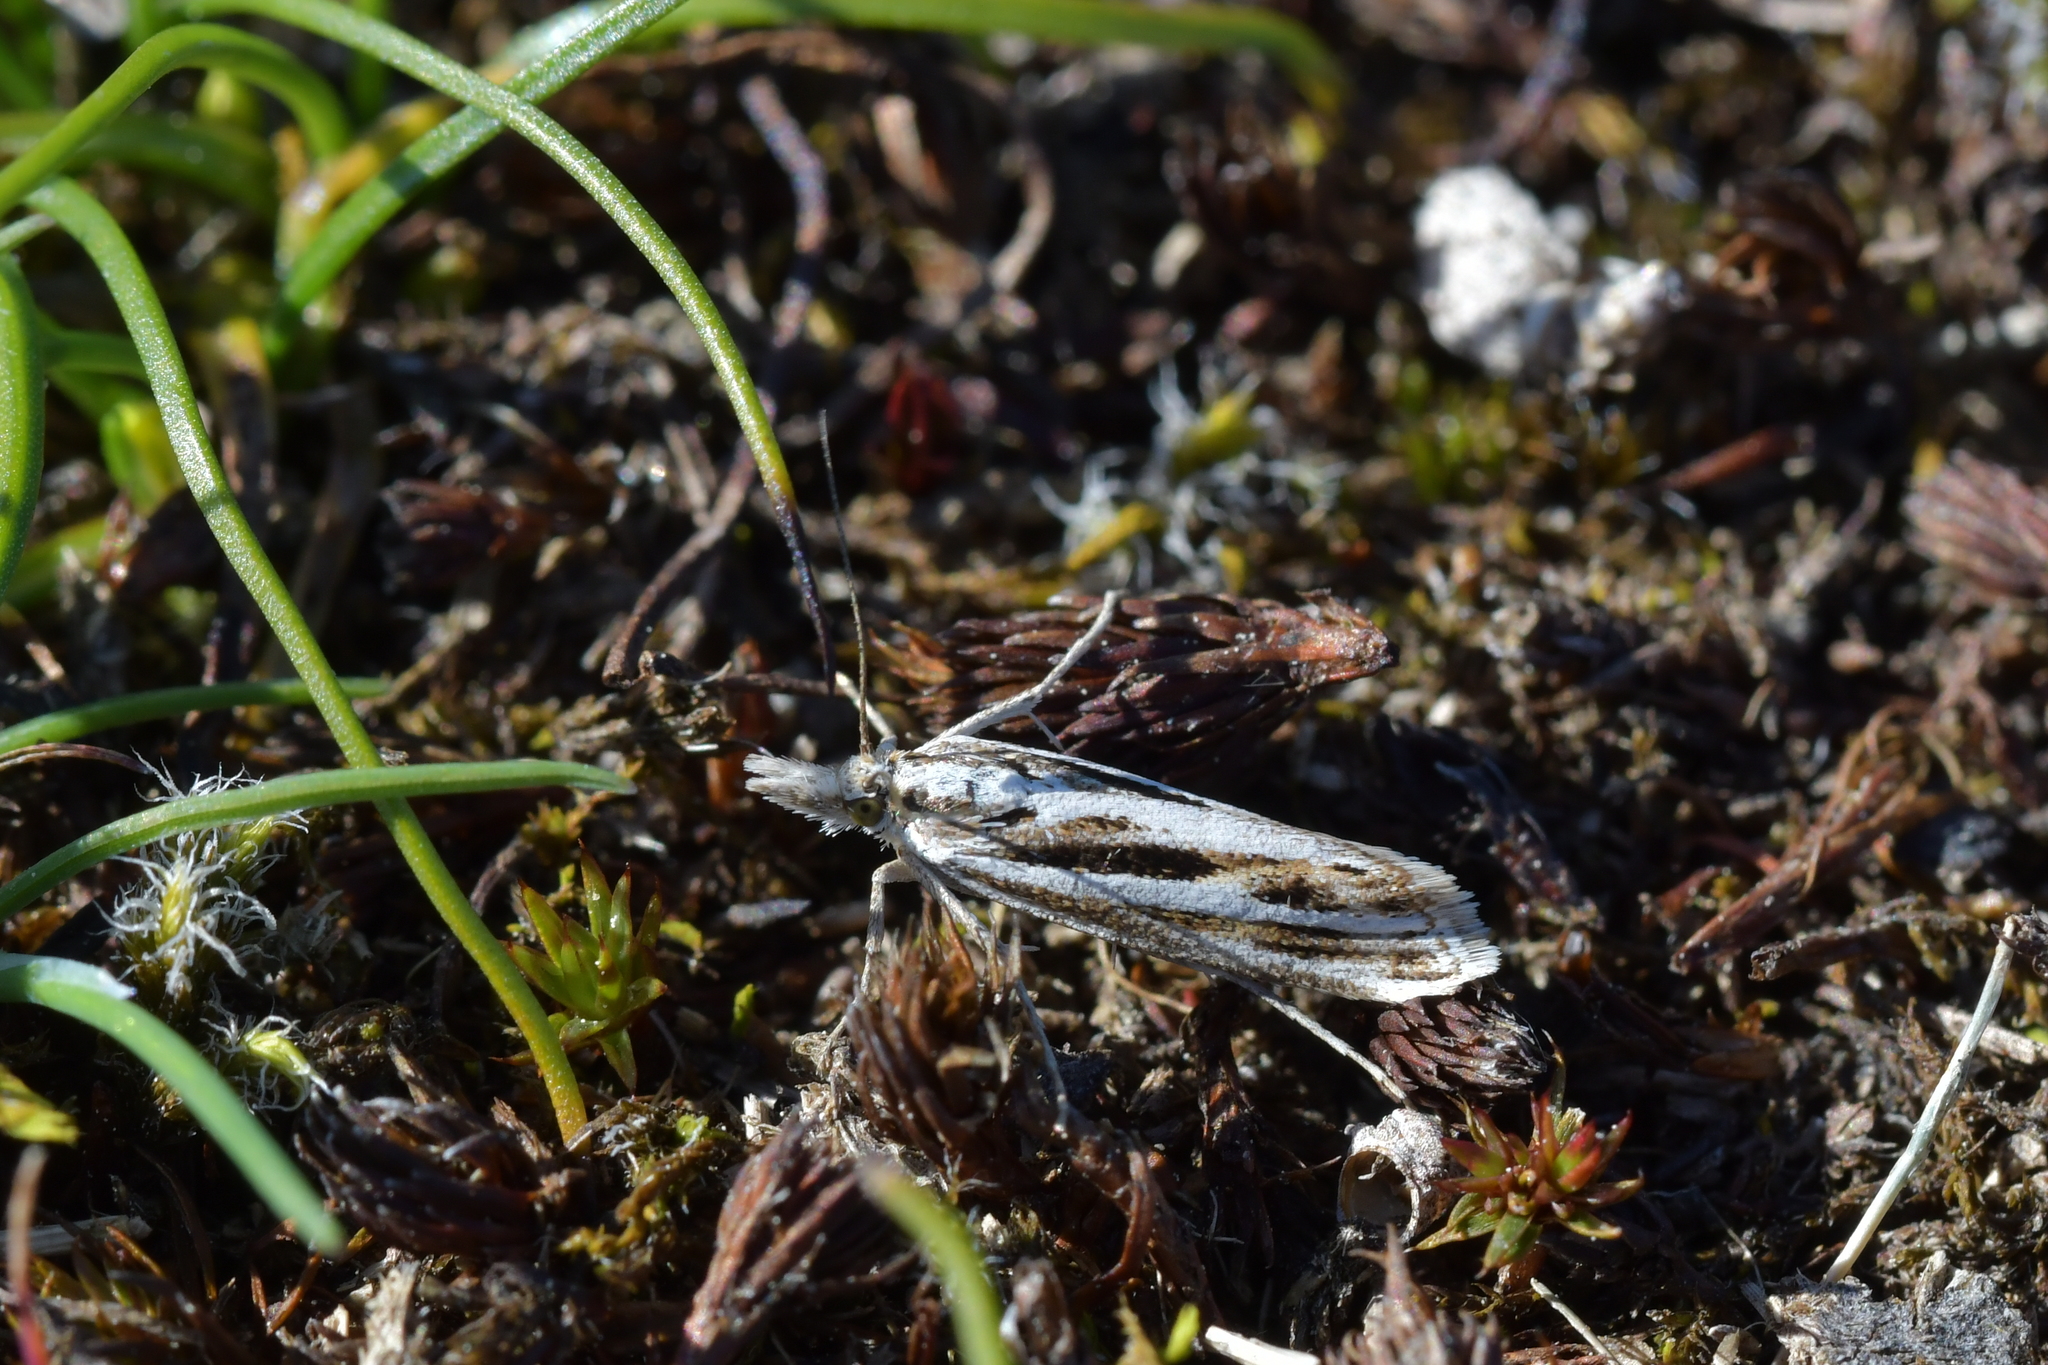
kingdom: Animalia
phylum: Arthropoda
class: Insecta
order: Lepidoptera
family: Crambidae
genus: Orocrambus
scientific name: Orocrambus corruptus
